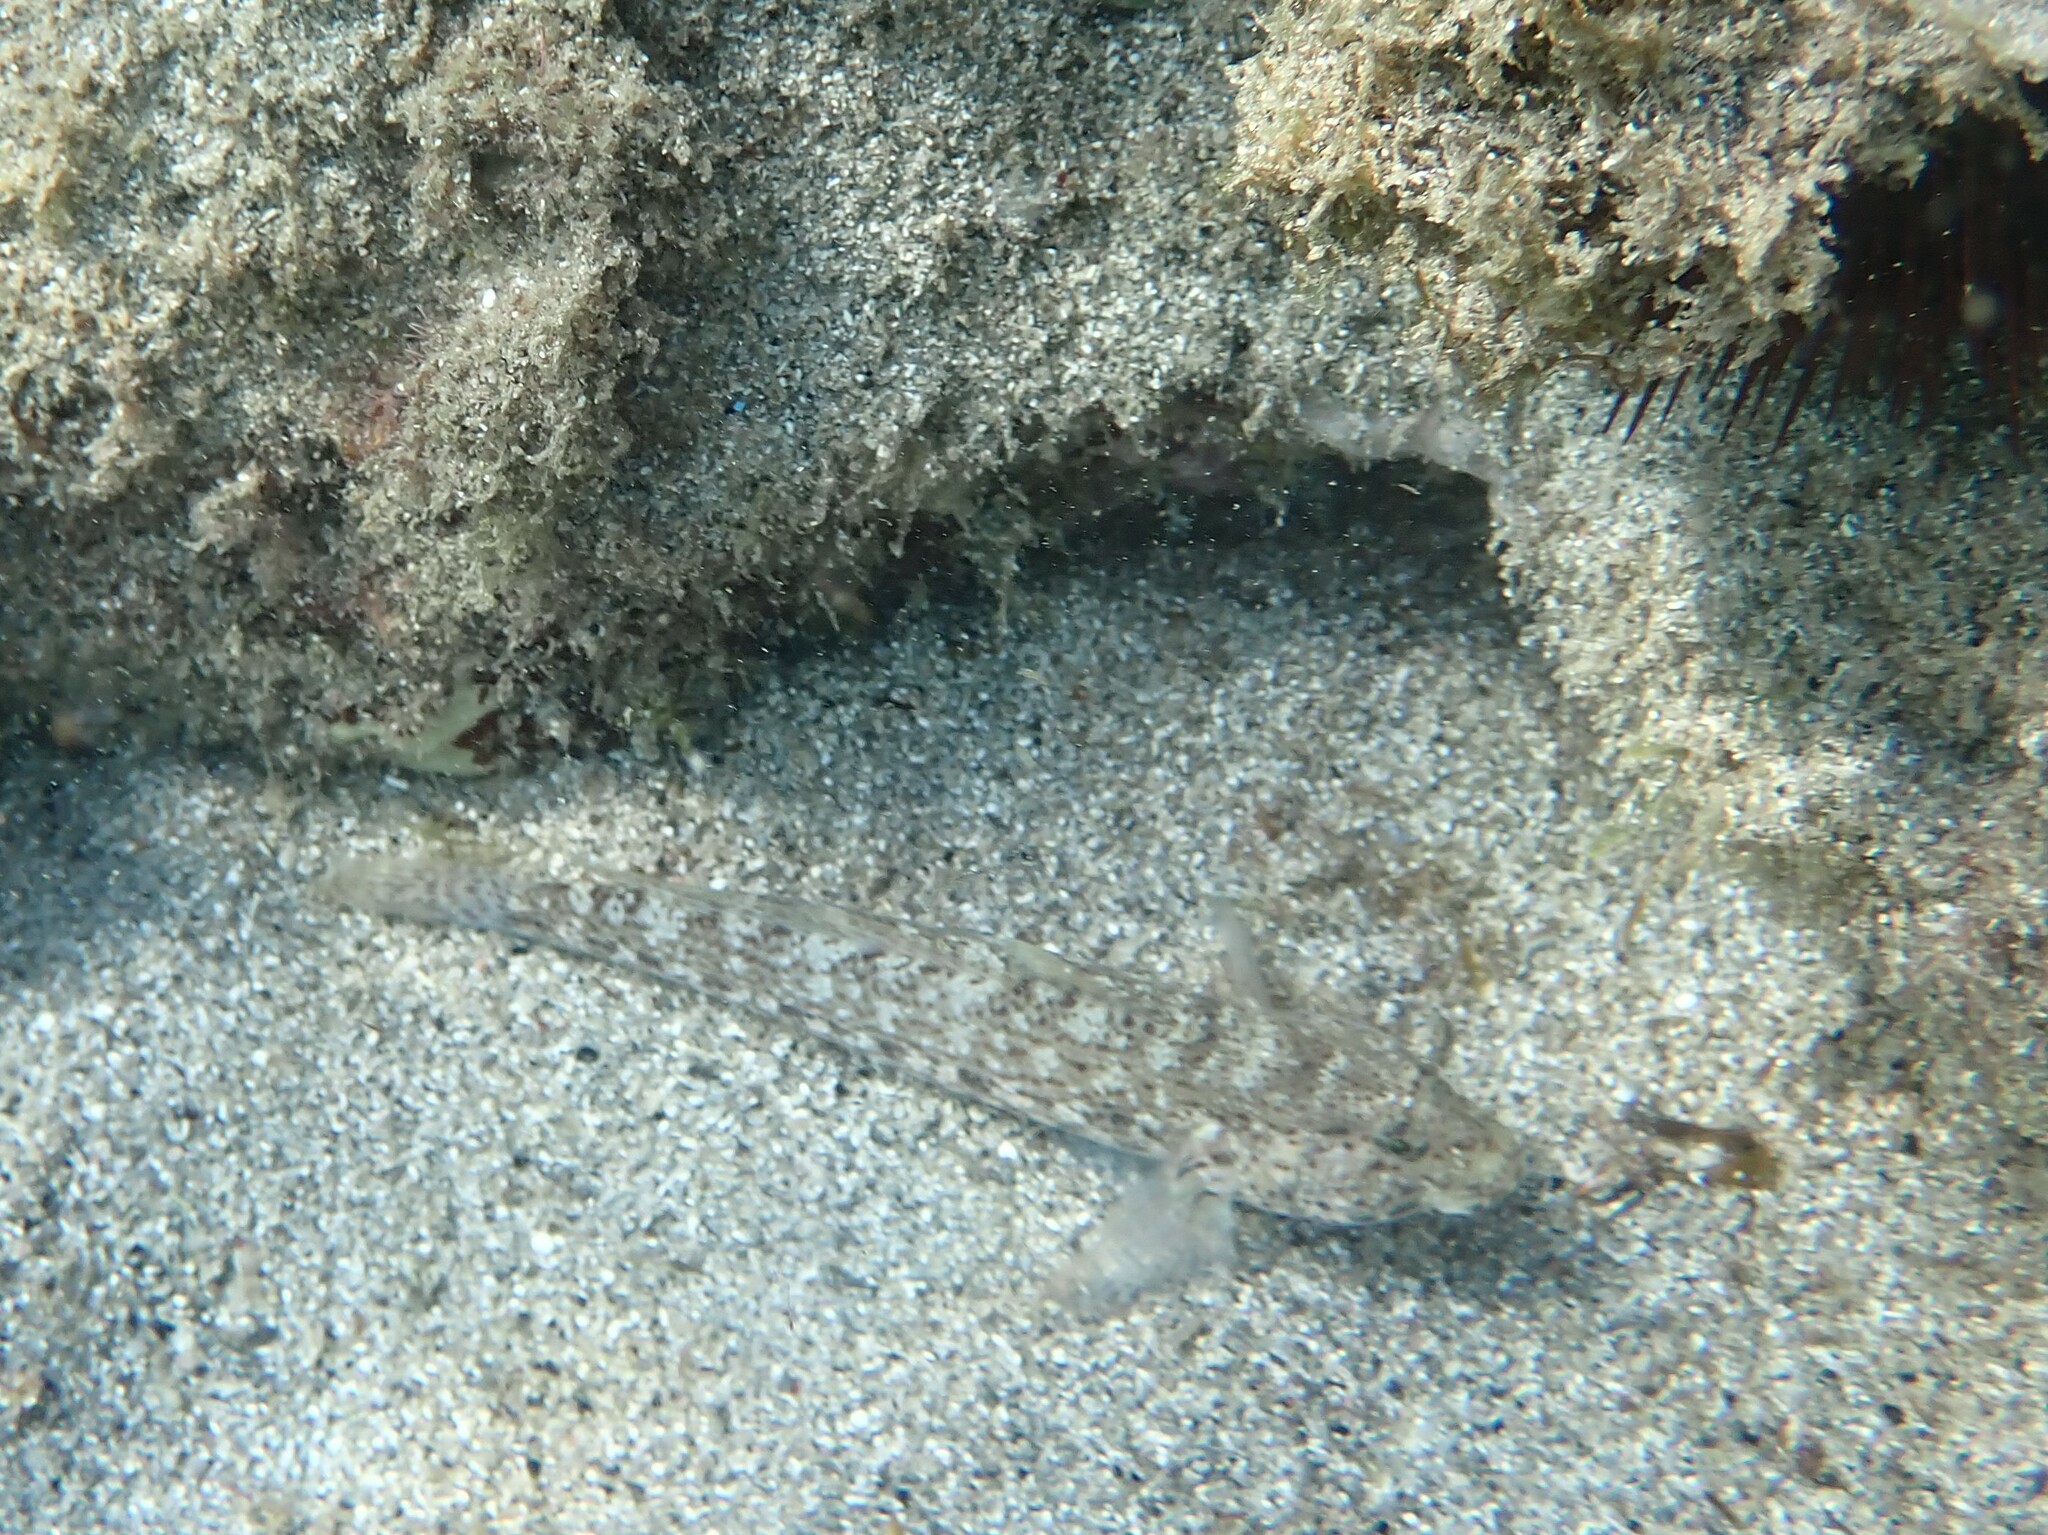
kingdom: Animalia
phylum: Chordata
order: Perciformes
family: Gobiidae
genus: Gobius
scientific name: Gobius incognitus
